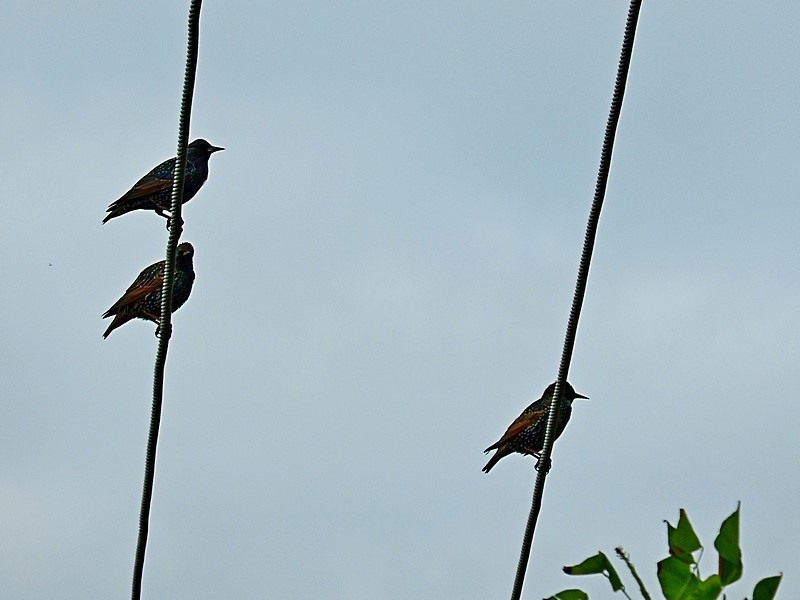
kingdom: Animalia
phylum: Chordata
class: Aves
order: Passeriformes
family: Sturnidae
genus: Sturnus
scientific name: Sturnus vulgaris
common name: Common starling
